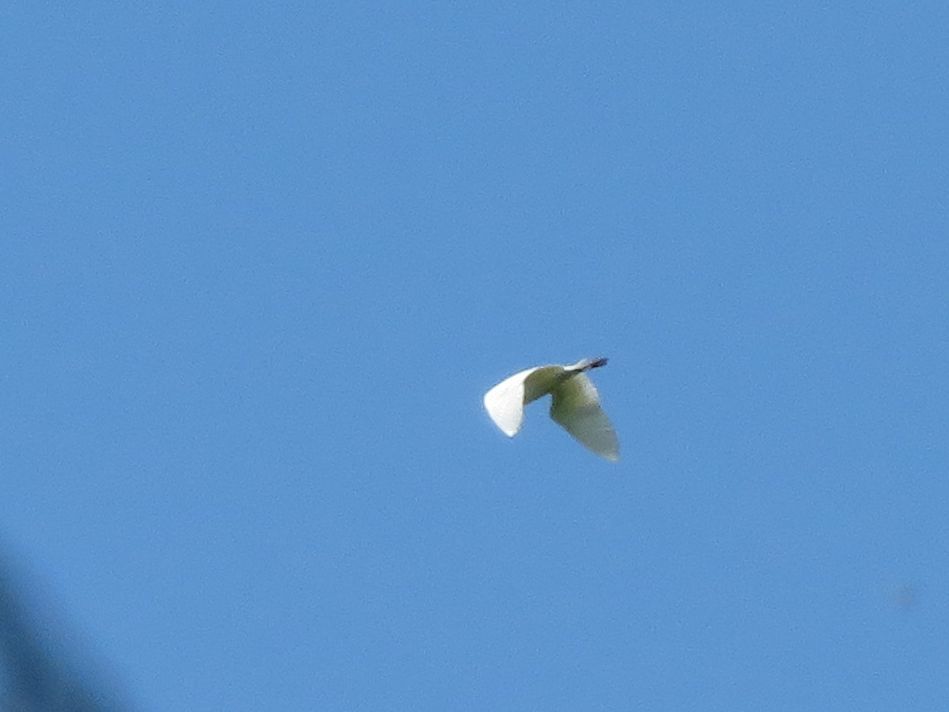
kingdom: Animalia
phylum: Chordata
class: Aves
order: Pelecaniformes
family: Ardeidae
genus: Ardea
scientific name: Ardea alba
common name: Great egret
